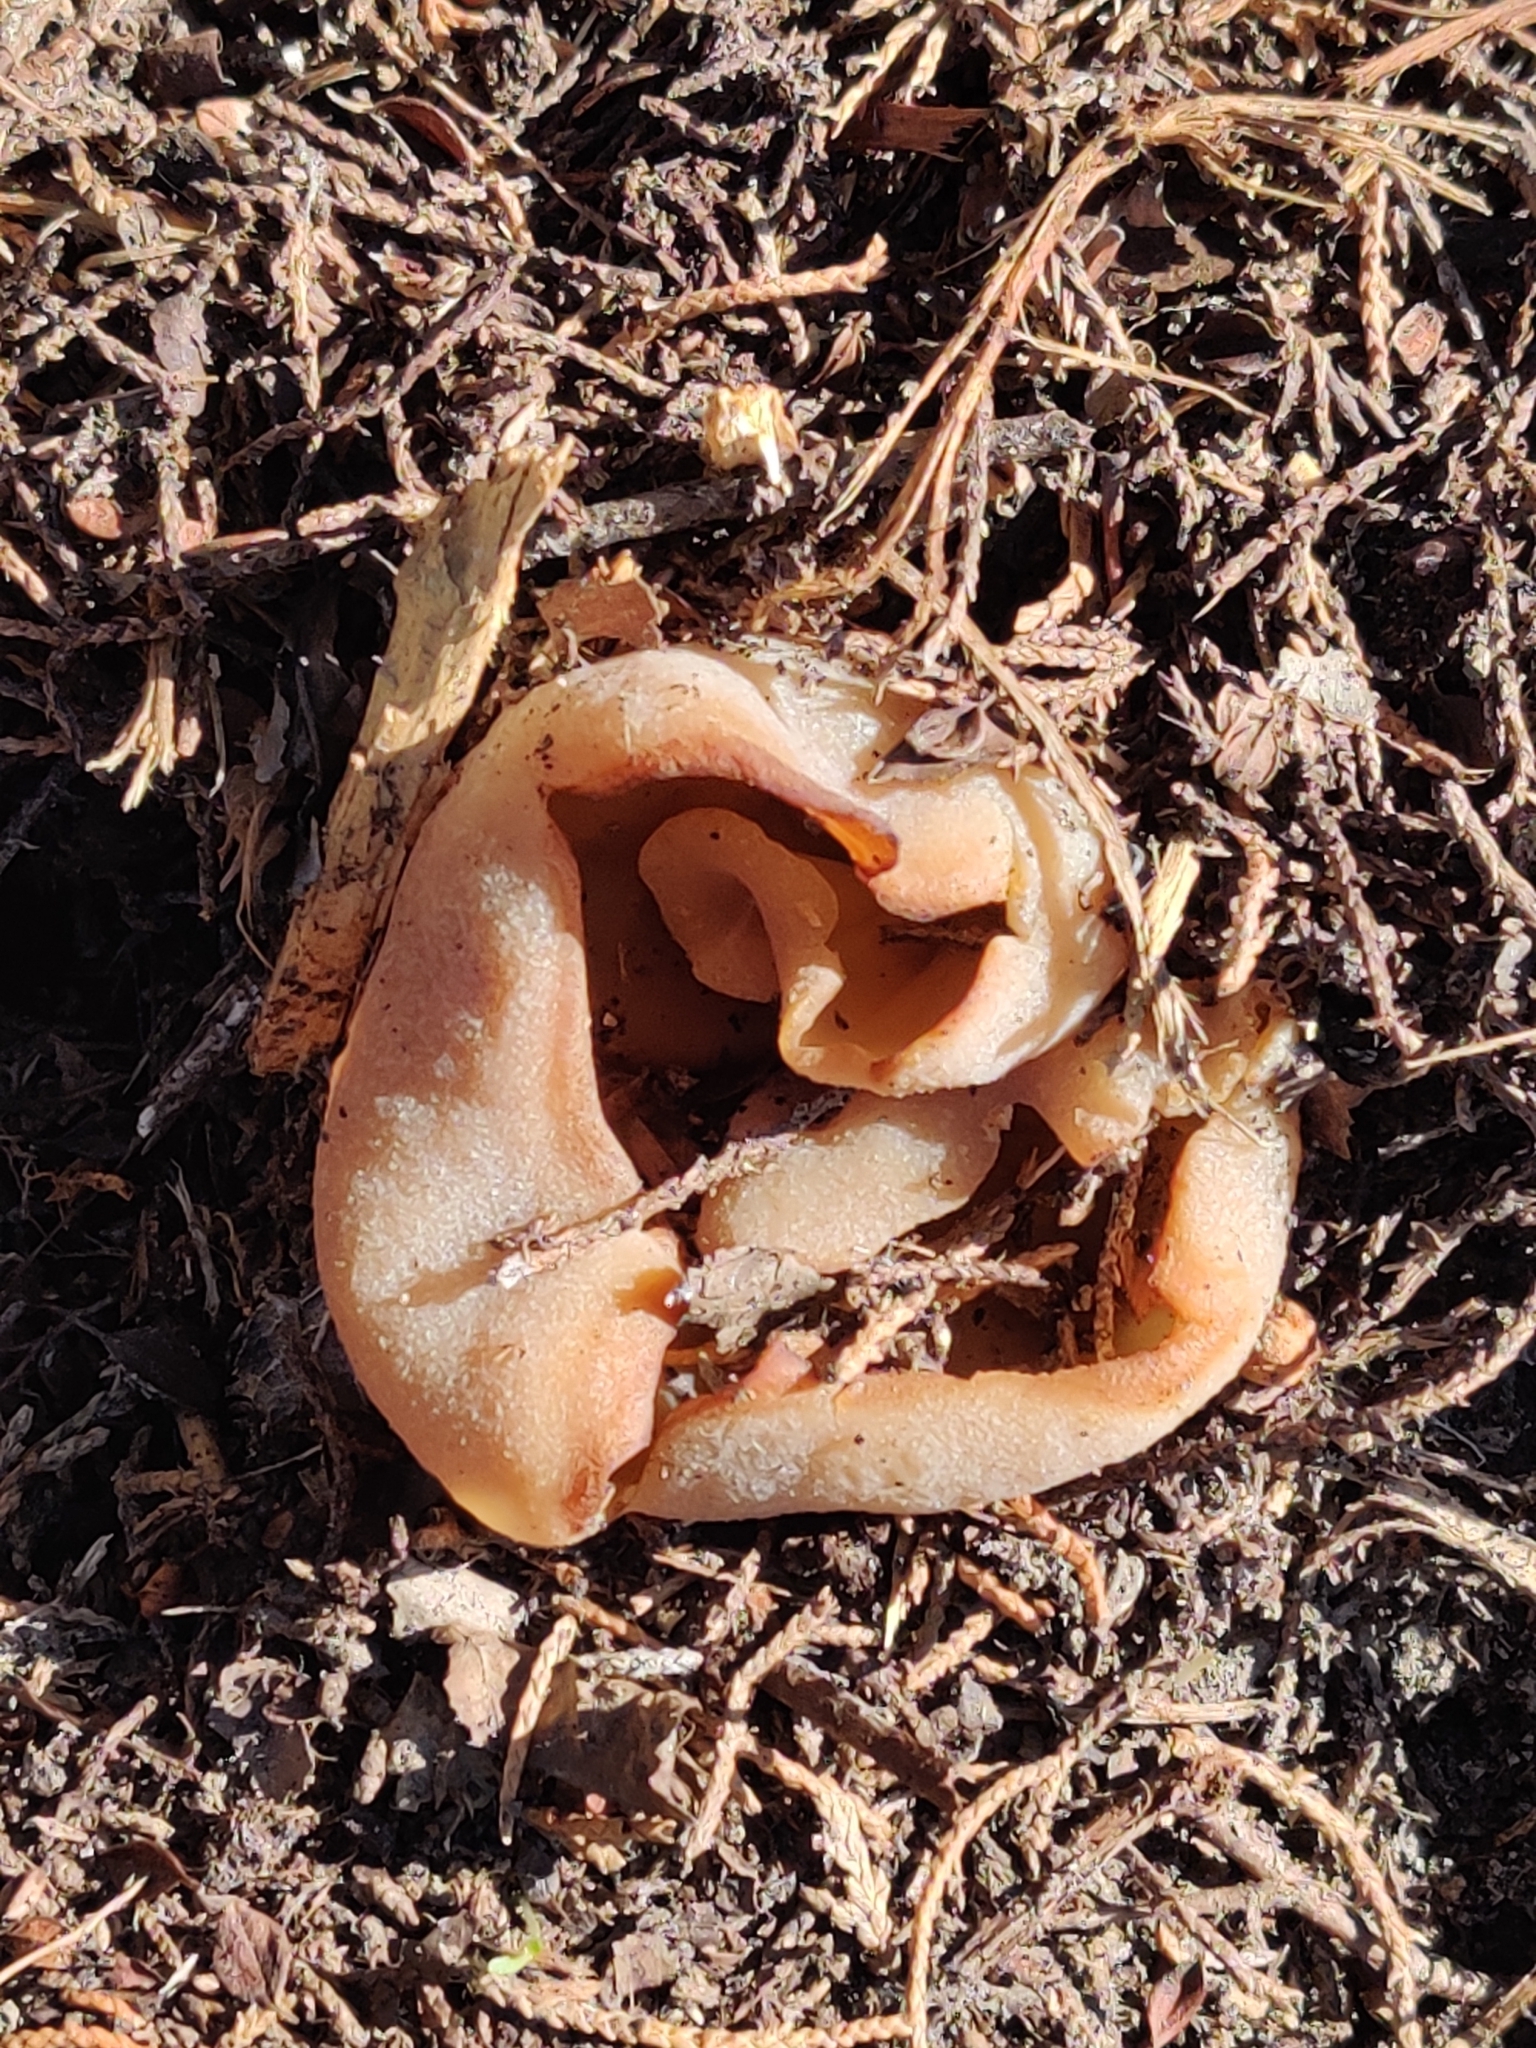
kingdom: Fungi
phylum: Ascomycota
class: Pezizomycetes
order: Pezizales
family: Pezizaceae
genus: Peziza
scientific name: Peziza varia
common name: Layered cup
